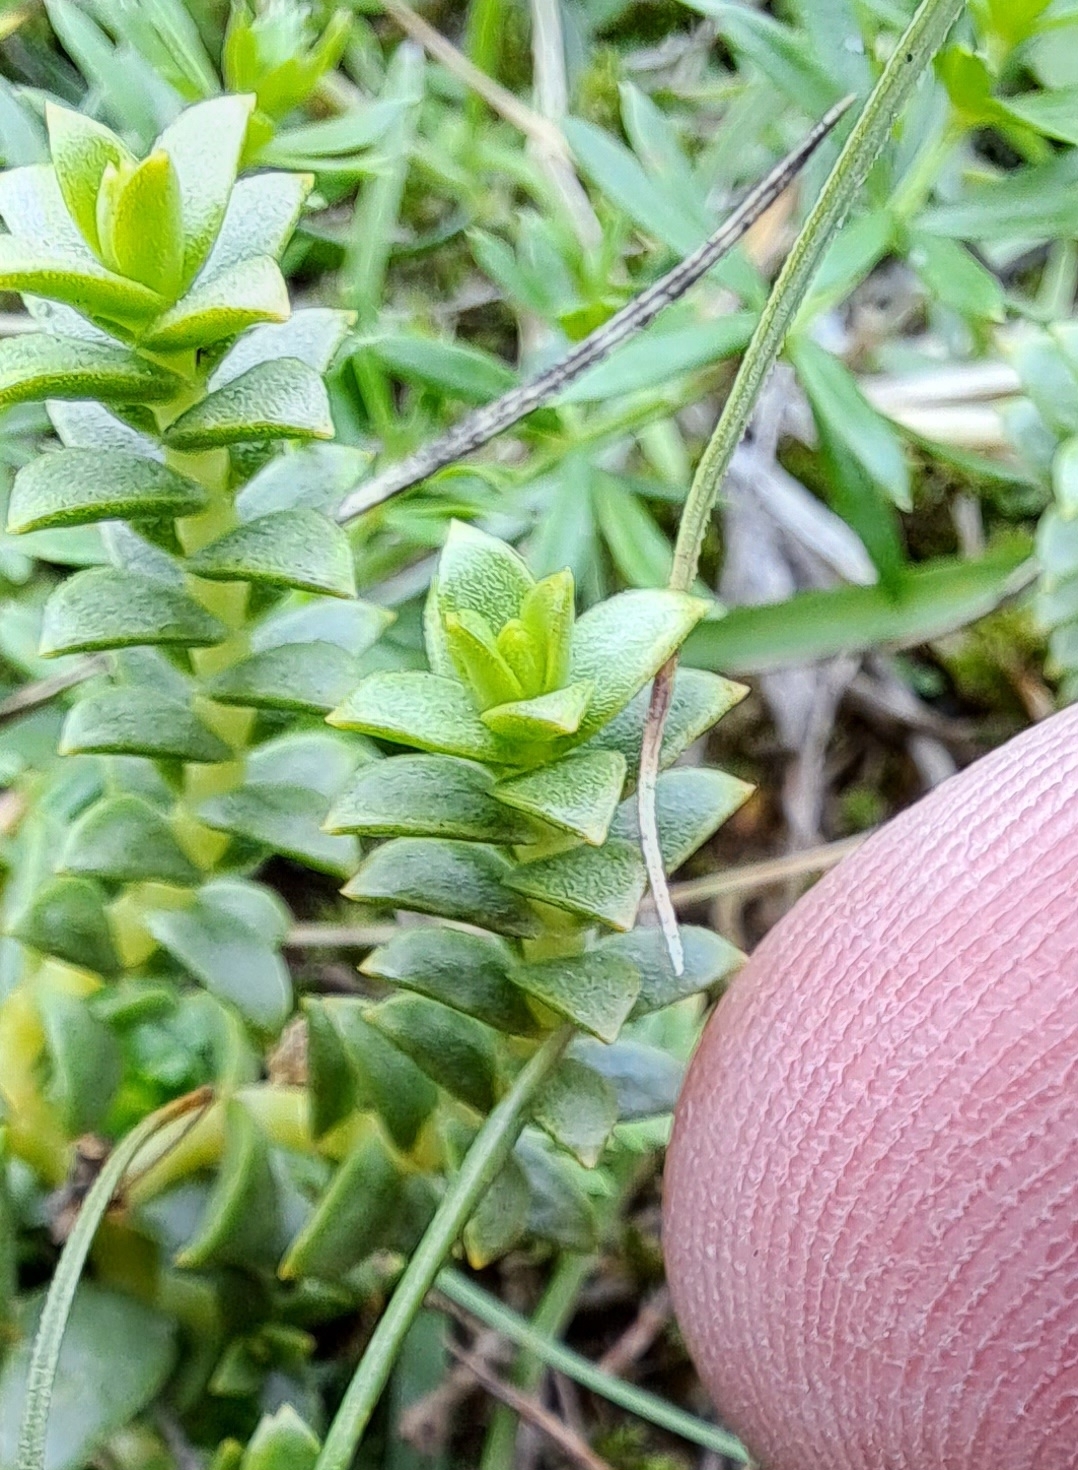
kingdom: Plantae
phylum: Tracheophyta
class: Magnoliopsida
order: Caryophyllales
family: Caryophyllaceae
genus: Honckenya
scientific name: Honckenya peploides
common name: Sea sandwort
